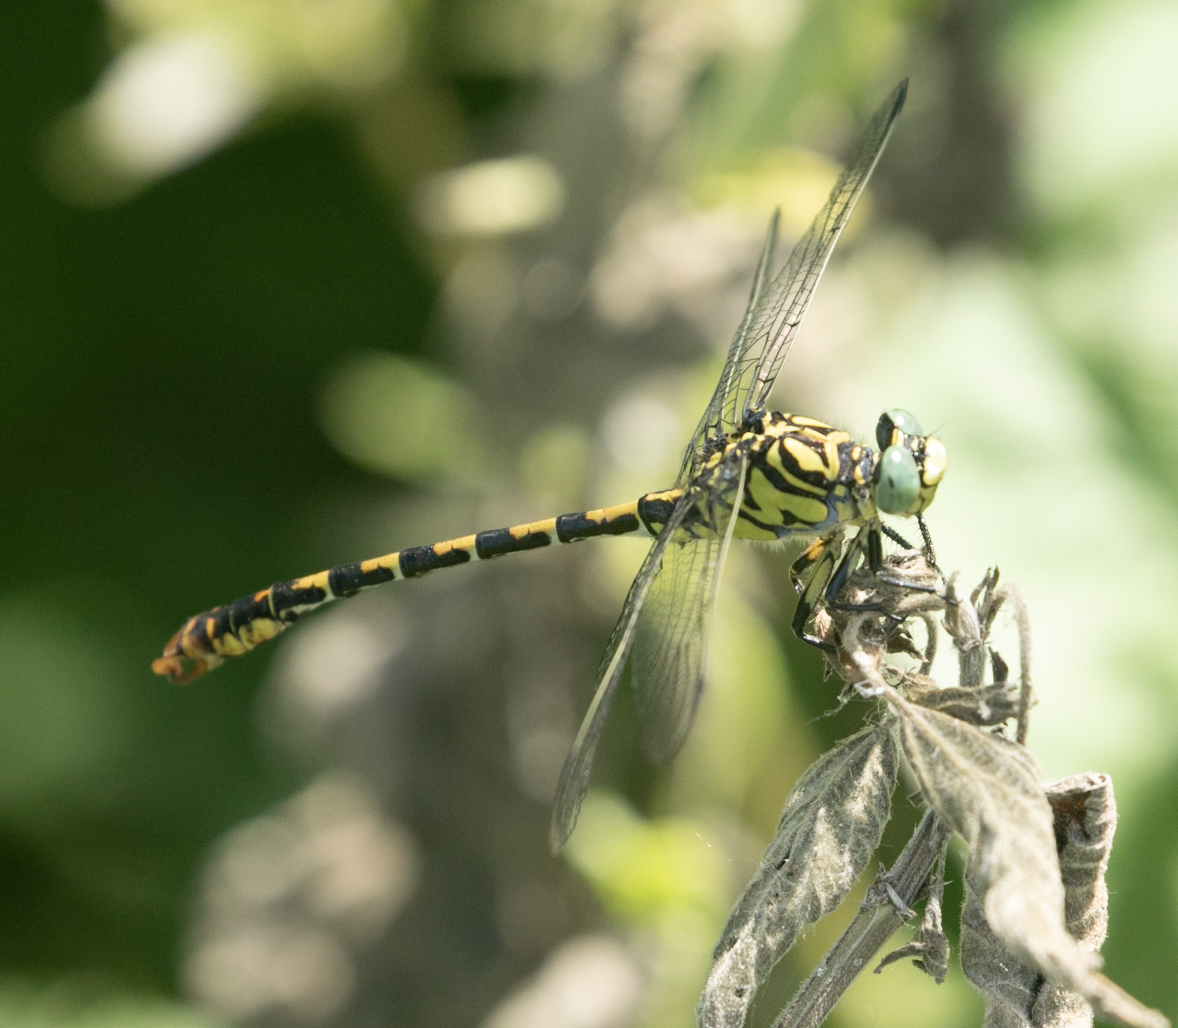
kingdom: Animalia
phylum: Arthropoda
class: Insecta
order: Odonata
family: Gomphidae
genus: Onychogomphus
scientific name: Onychogomphus forcipatus
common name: Small pincertail
